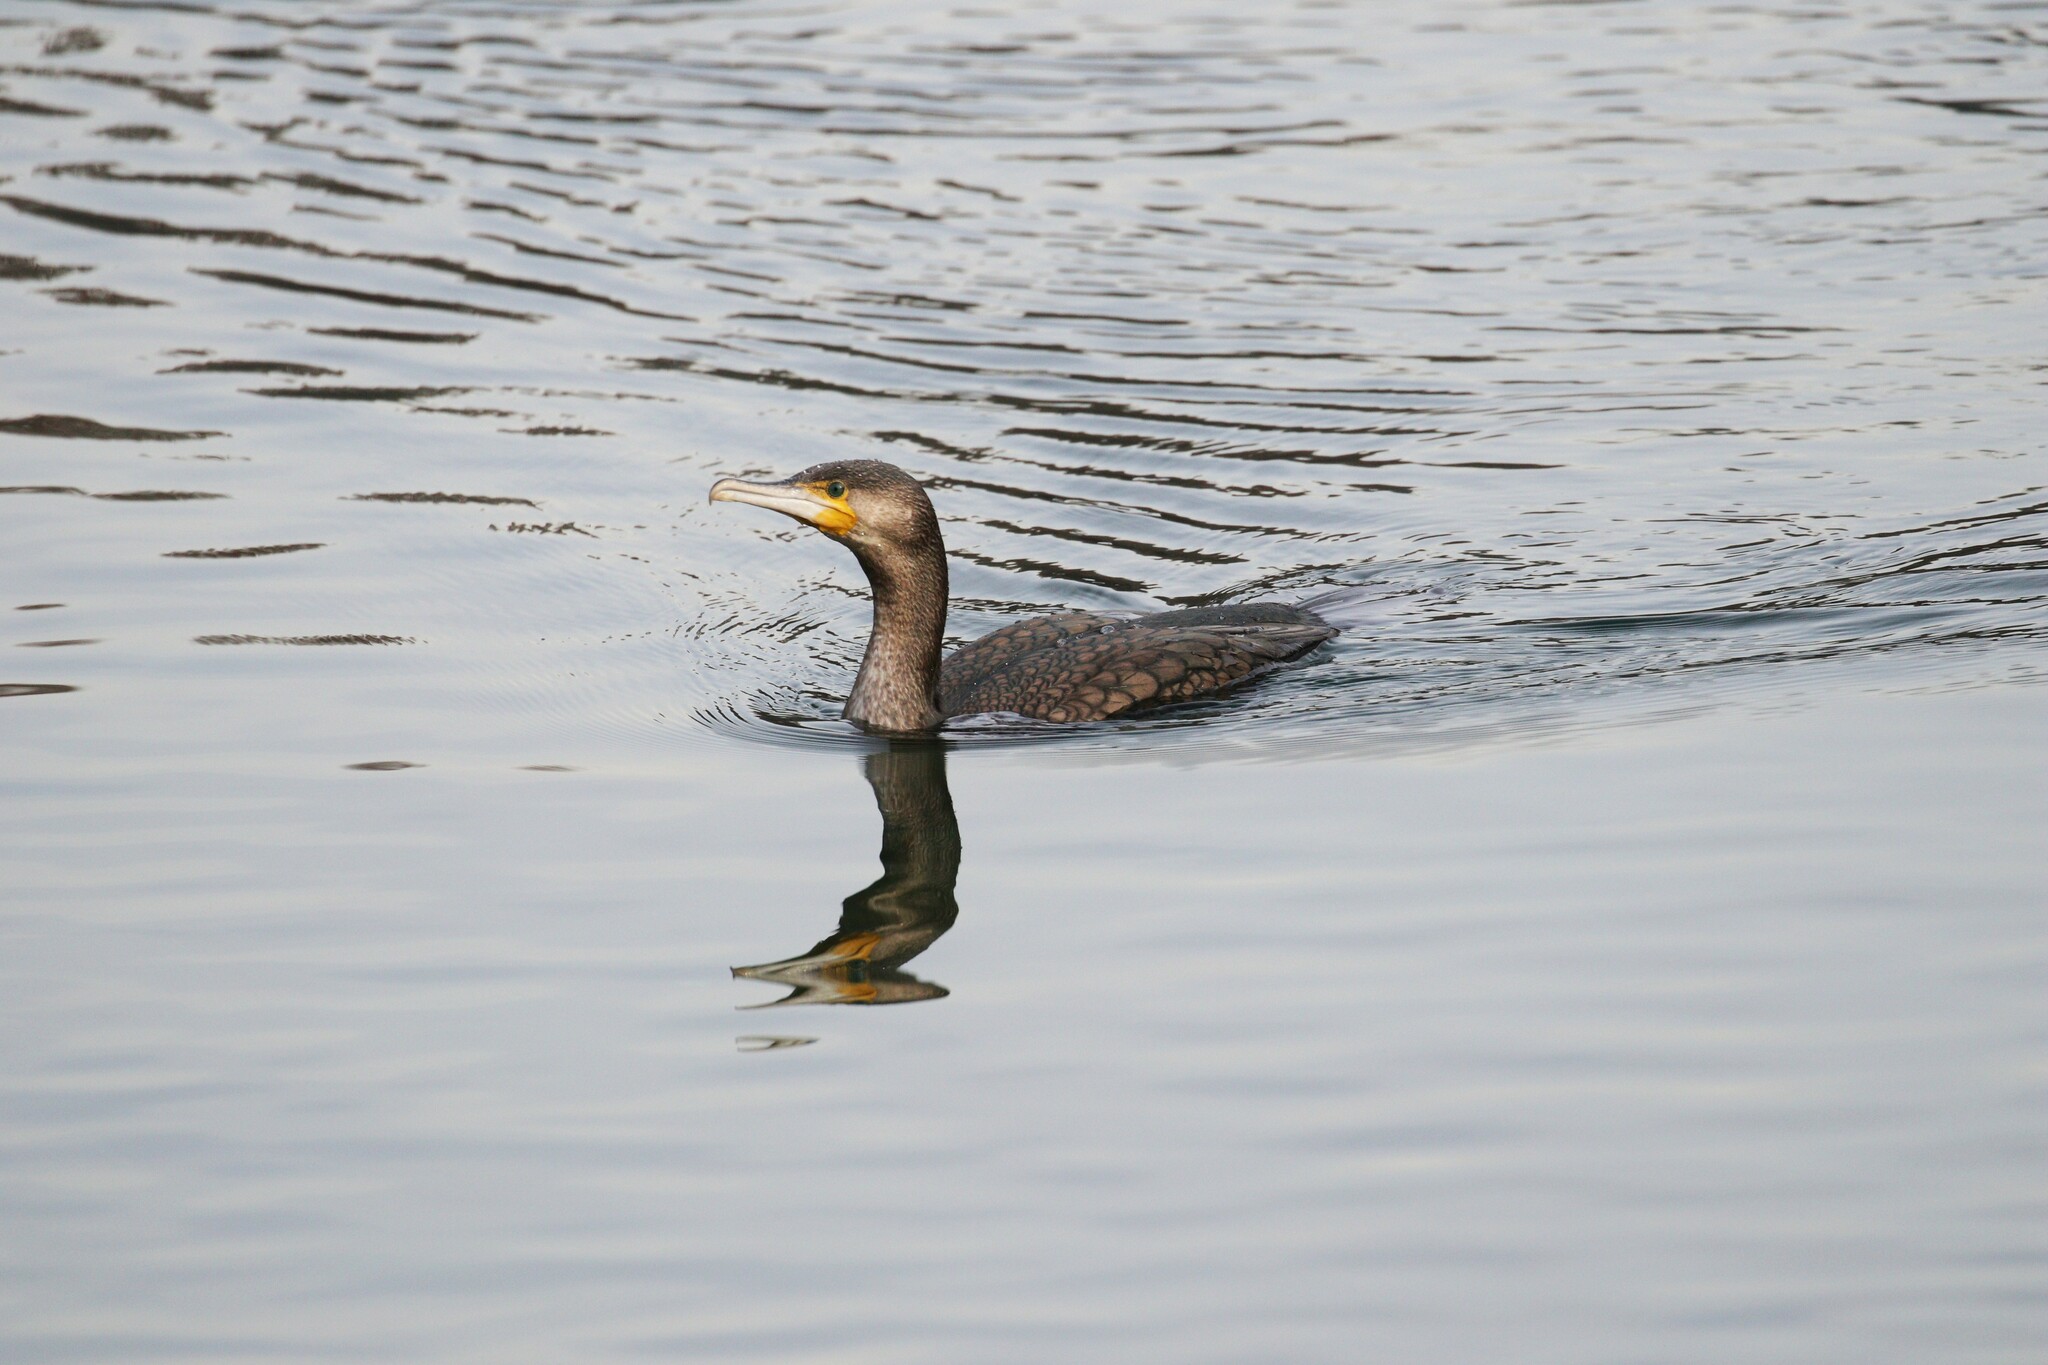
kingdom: Animalia
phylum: Chordata
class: Aves
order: Suliformes
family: Phalacrocoracidae
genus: Phalacrocorax
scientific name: Phalacrocorax carbo
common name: Great cormorant
